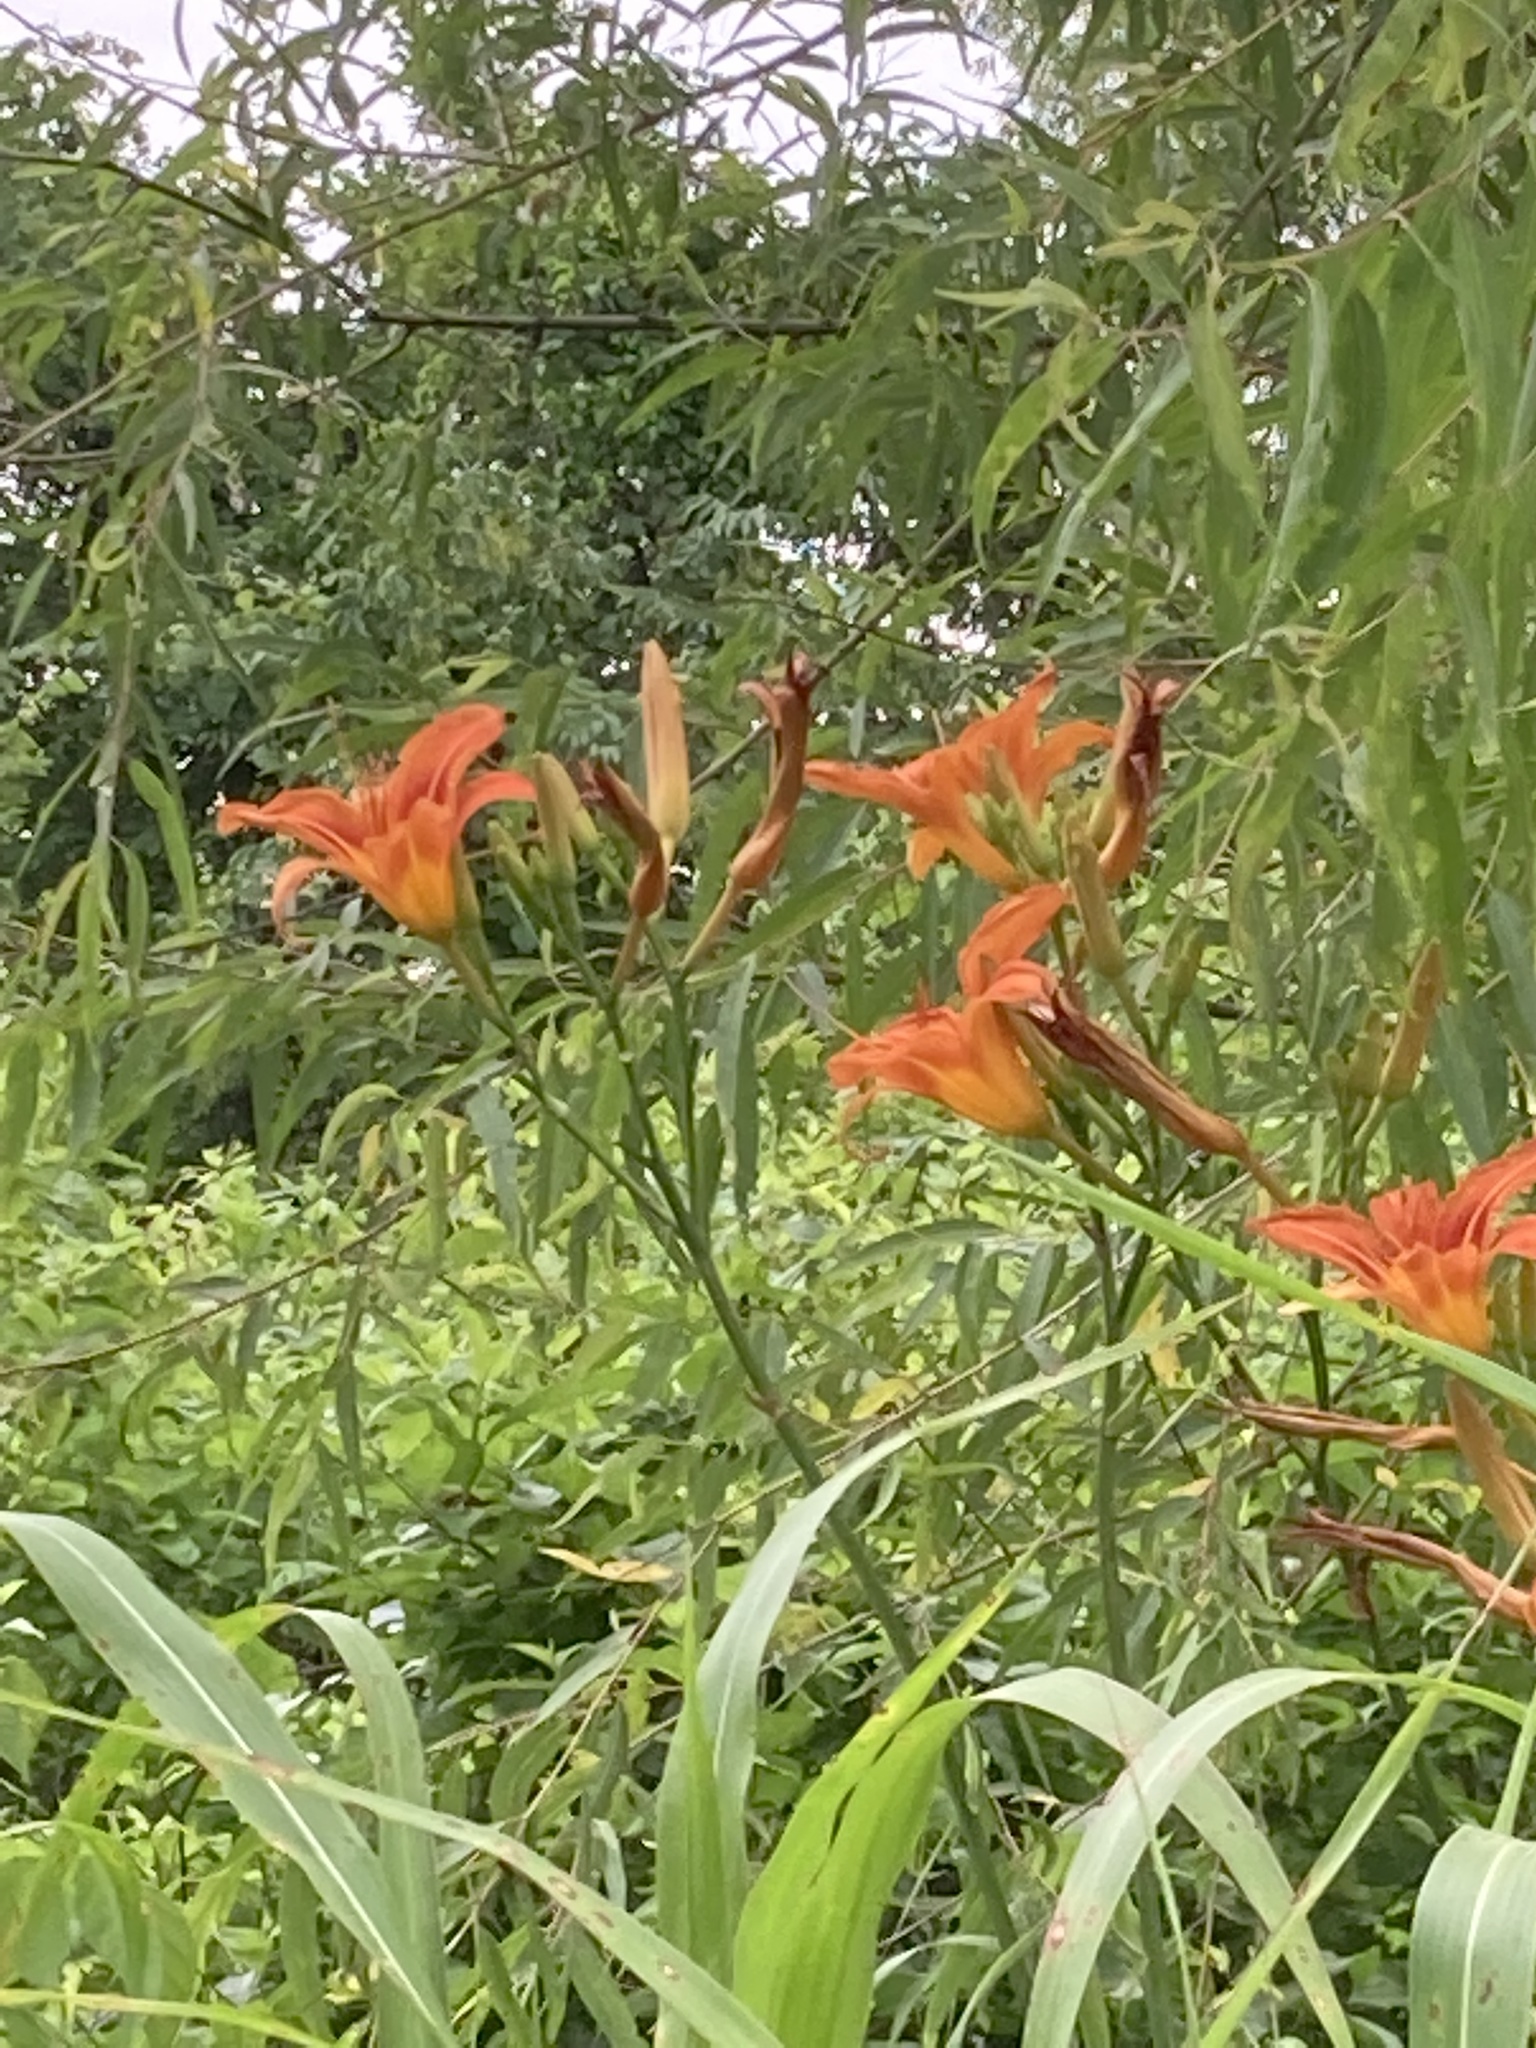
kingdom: Plantae
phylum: Tracheophyta
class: Liliopsida
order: Asparagales
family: Asphodelaceae
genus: Hemerocallis
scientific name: Hemerocallis fulva
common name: Orange day-lily
